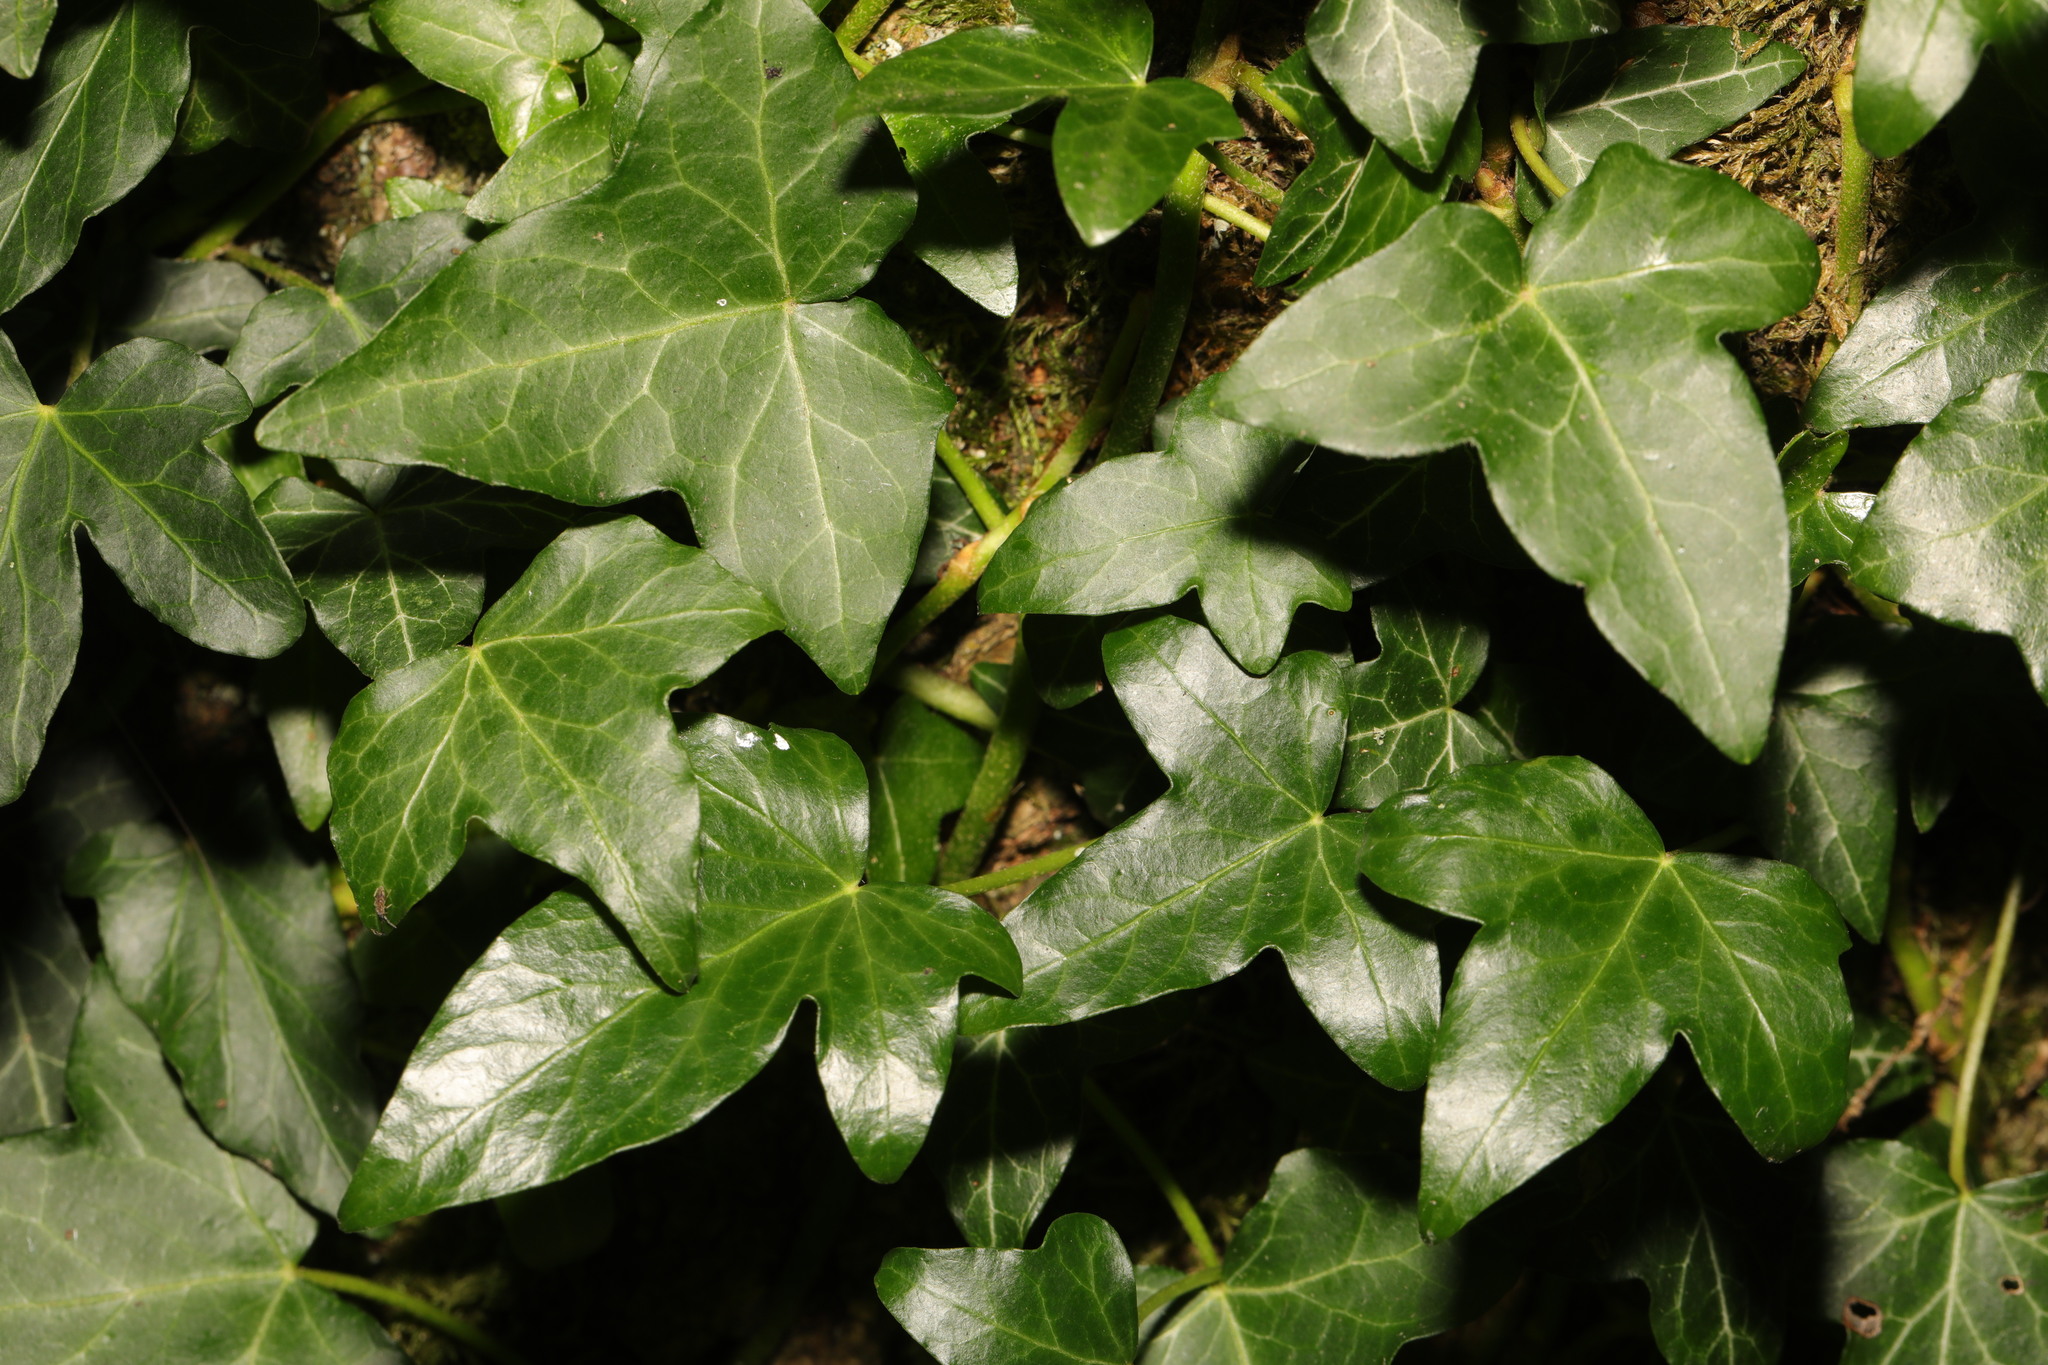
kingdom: Plantae
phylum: Tracheophyta
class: Magnoliopsida
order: Apiales
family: Araliaceae
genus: Hedera
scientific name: Hedera helix
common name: Ivy
